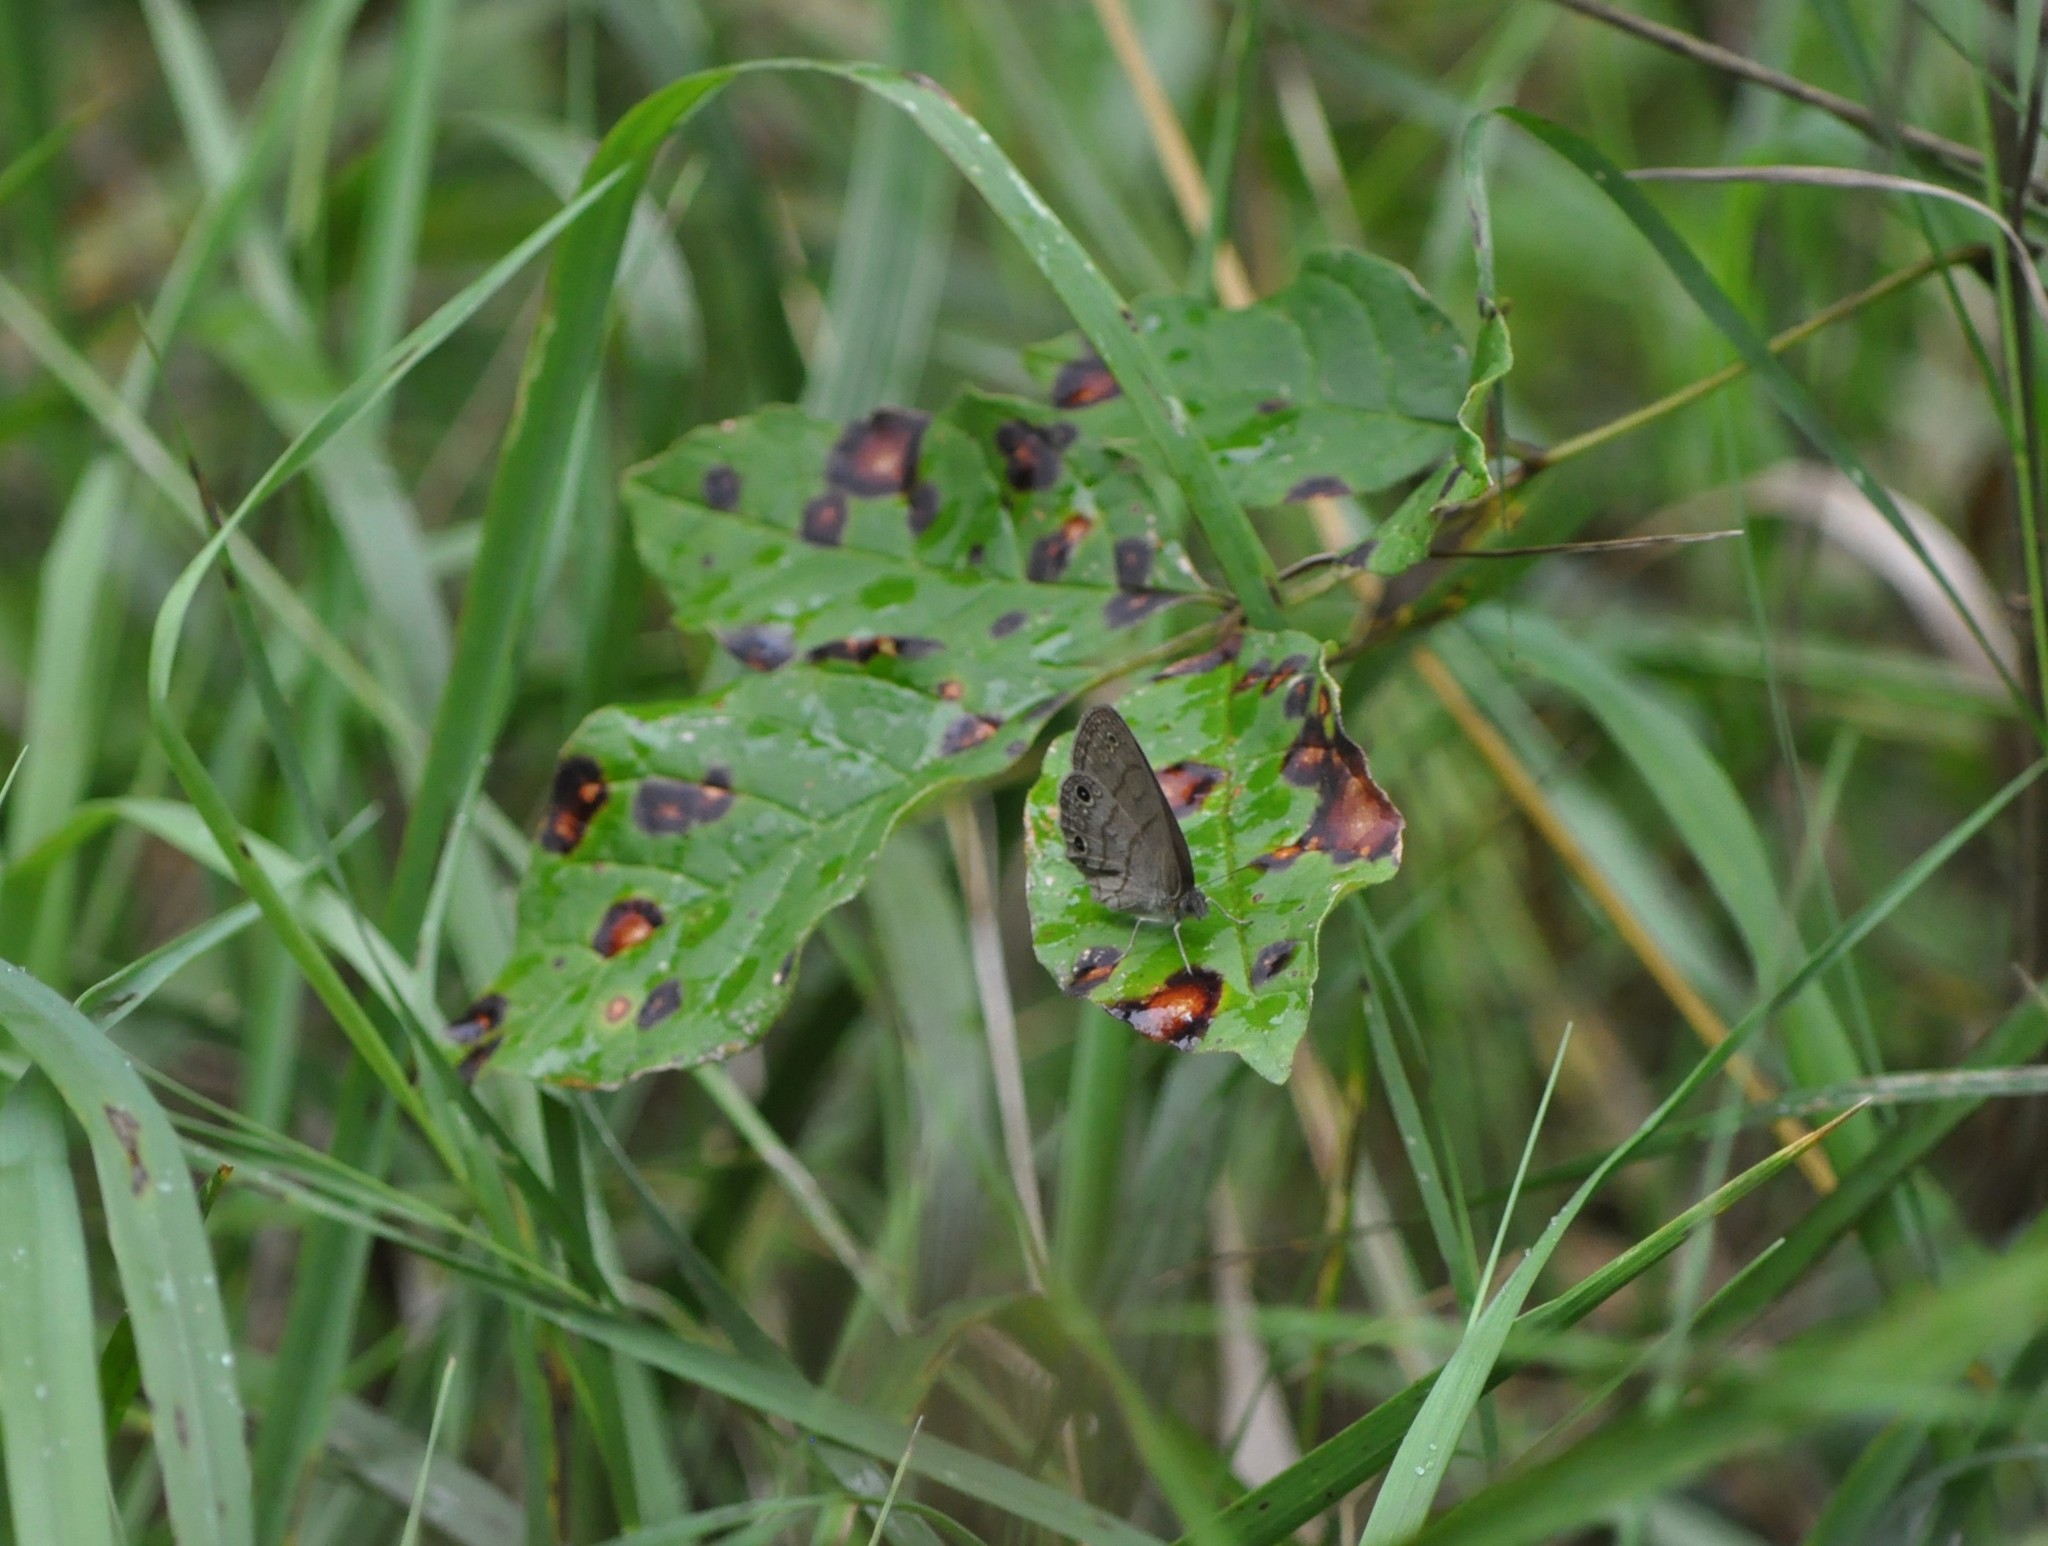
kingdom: Animalia
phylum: Arthropoda
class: Insecta
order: Lepidoptera
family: Nymphalidae
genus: Hermeuptychia
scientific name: Hermeuptychia hermes
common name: Hermes satyr
